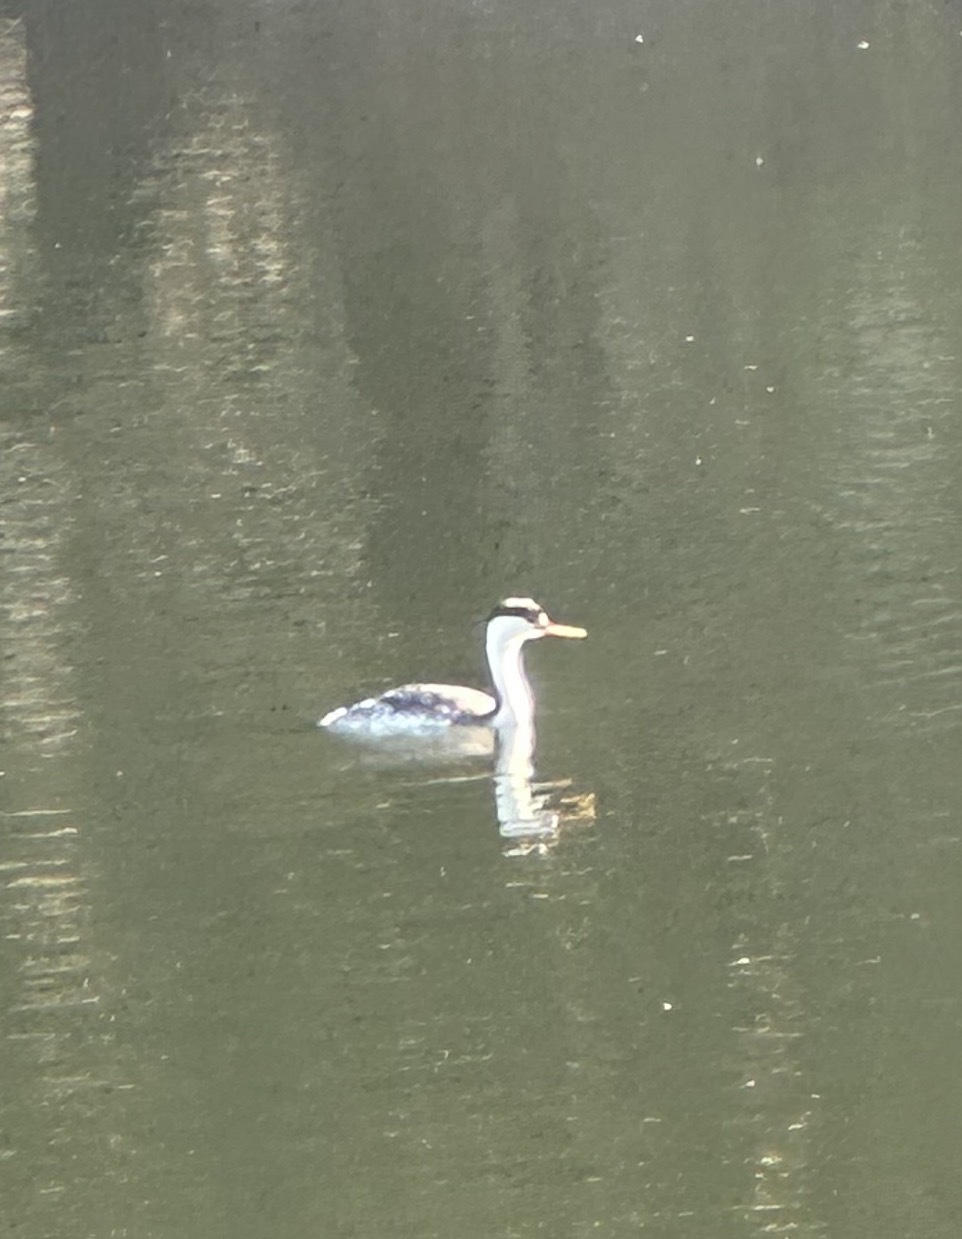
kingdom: Animalia
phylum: Chordata
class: Aves
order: Podicipediformes
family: Podicipedidae
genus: Aechmophorus
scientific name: Aechmophorus clarkii
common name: Clark's grebe
